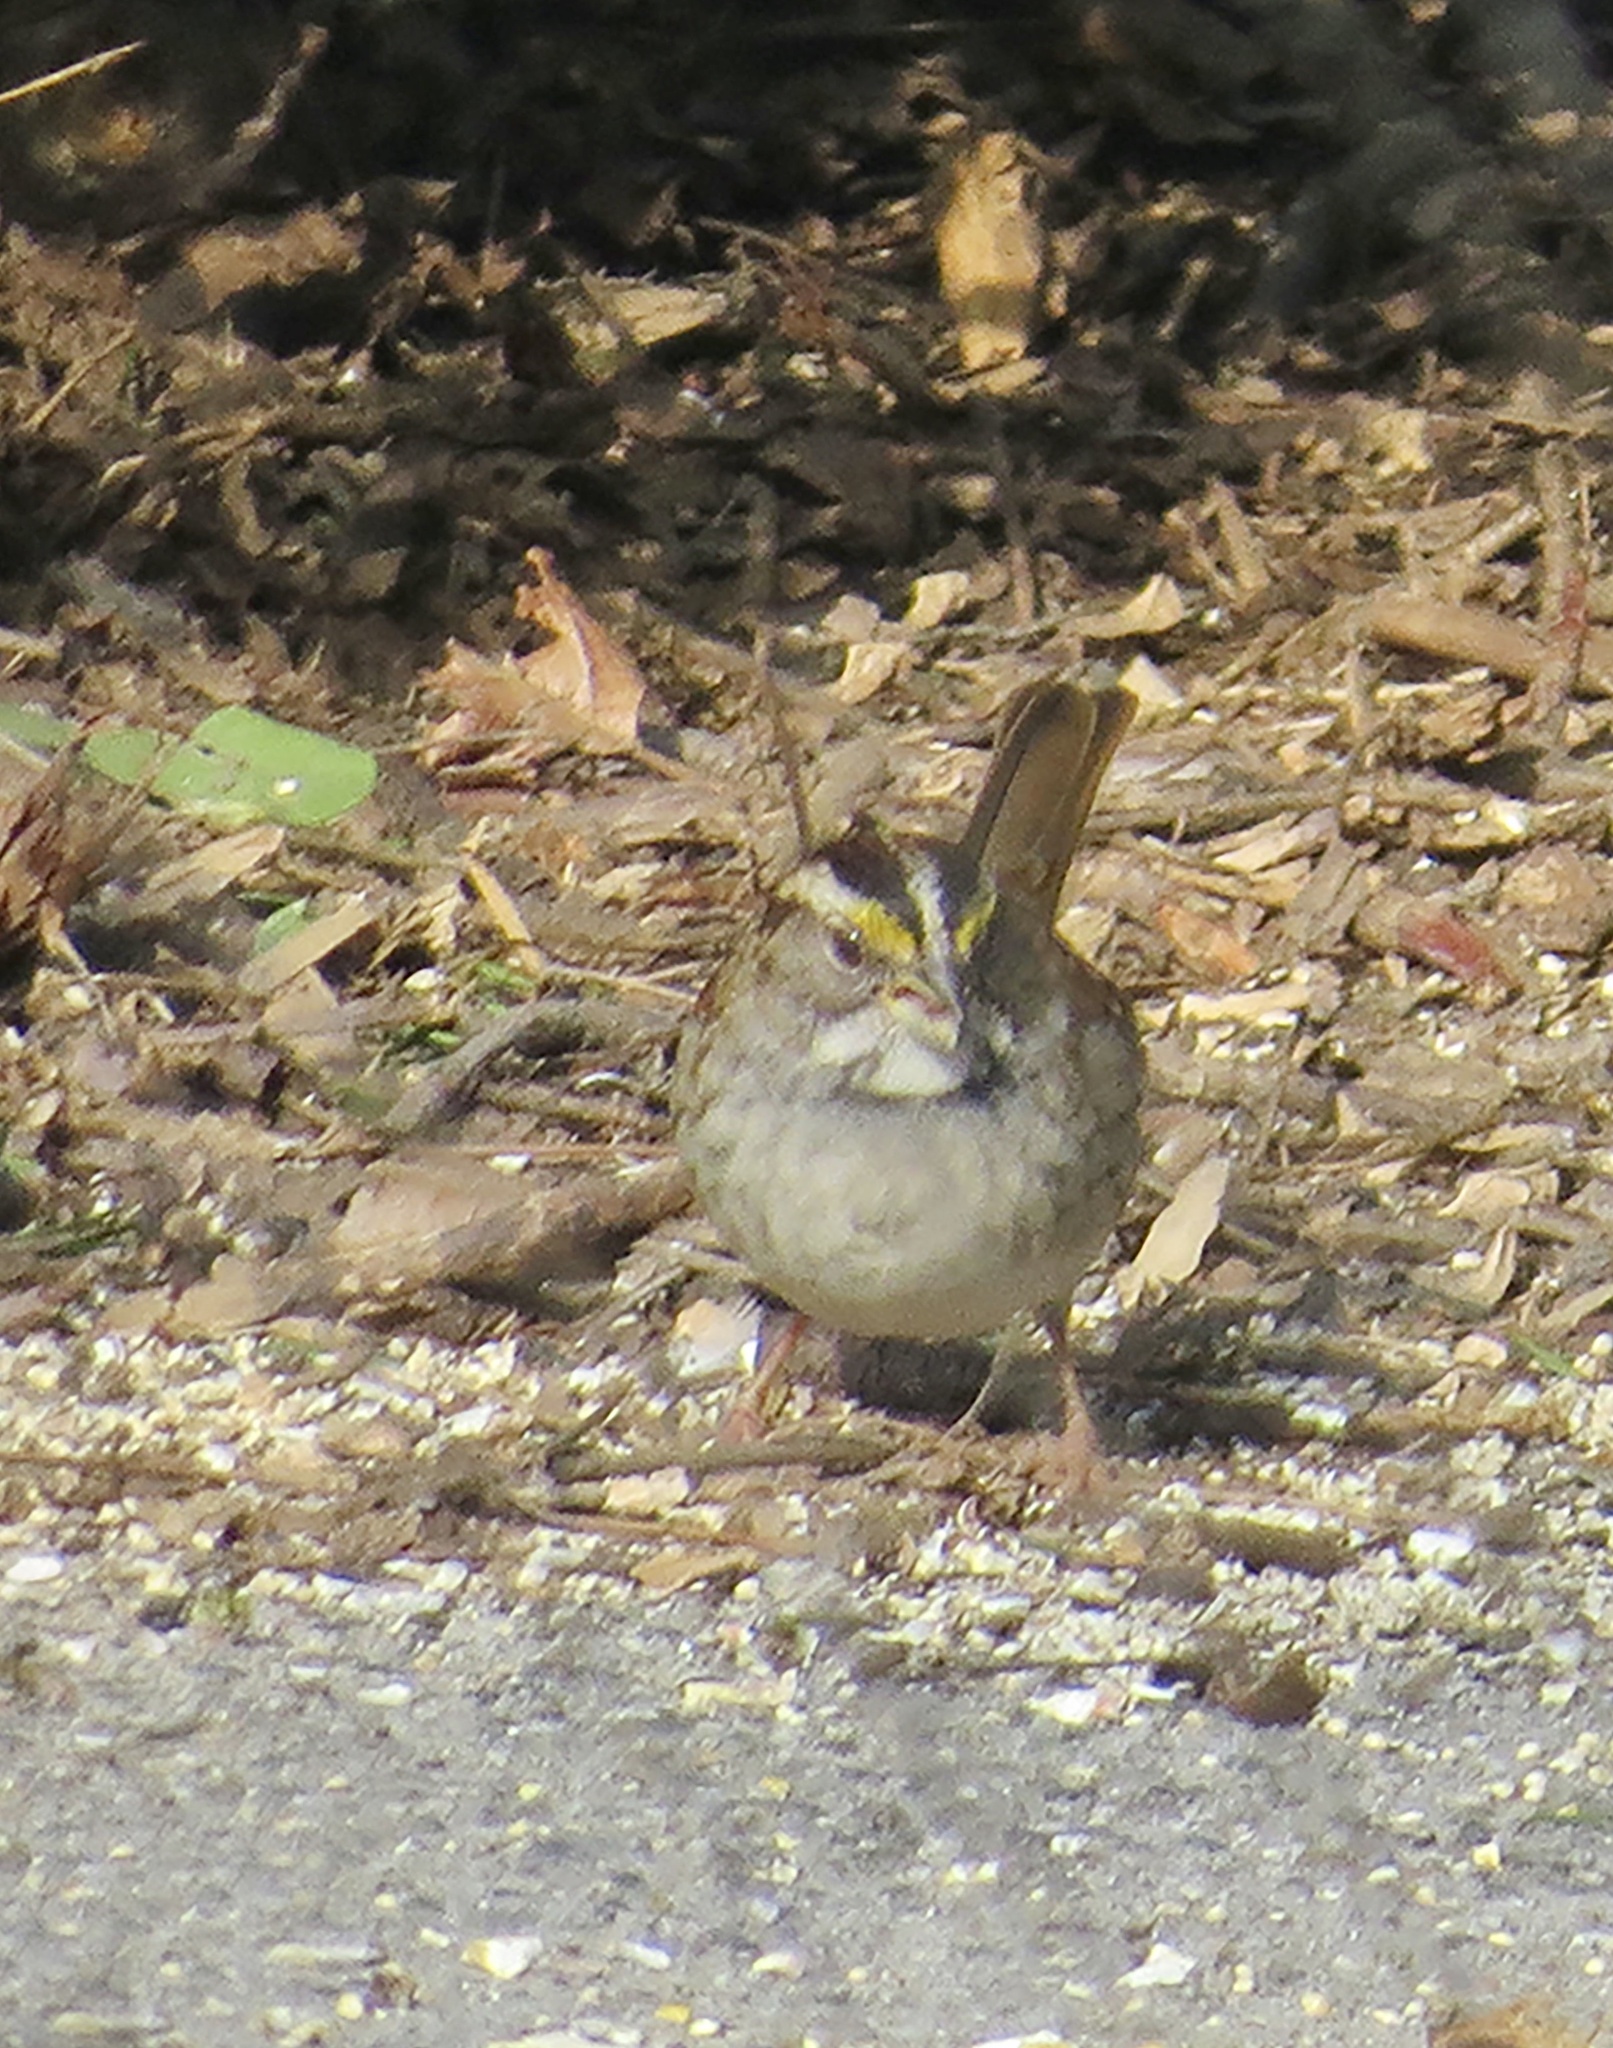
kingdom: Animalia
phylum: Chordata
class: Aves
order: Passeriformes
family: Passerellidae
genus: Zonotrichia
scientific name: Zonotrichia albicollis
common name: White-throated sparrow
